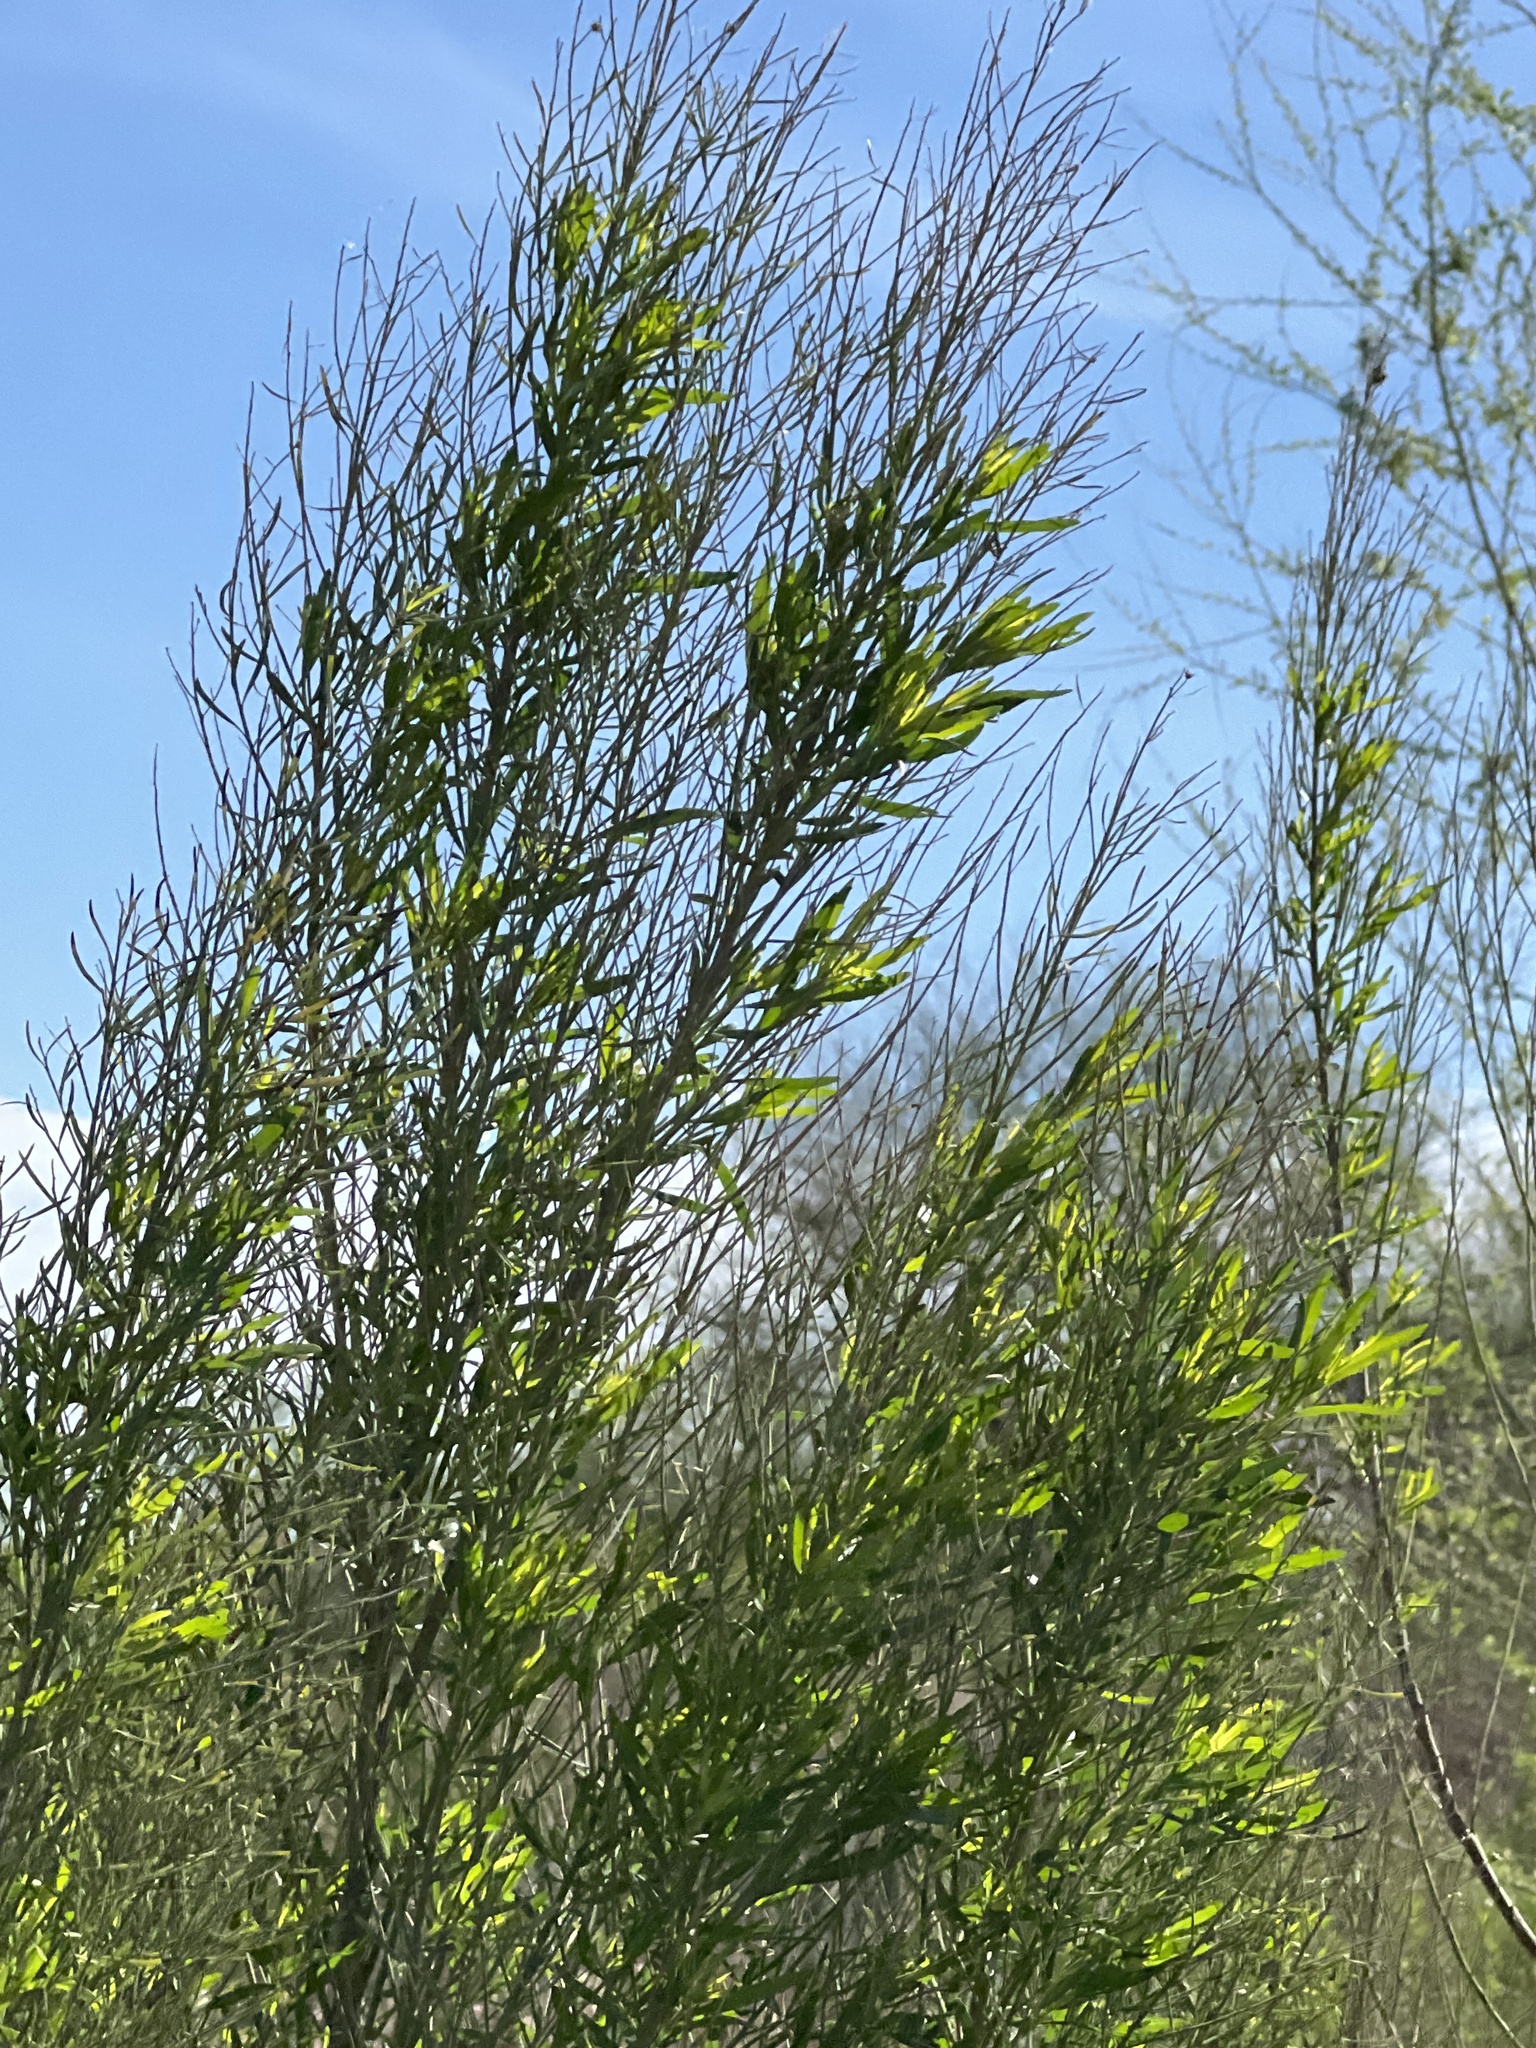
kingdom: Plantae
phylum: Tracheophyta
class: Magnoliopsida
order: Asterales
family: Asteraceae
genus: Baccharis
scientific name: Baccharis neglecta
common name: Roosevelt-weed
